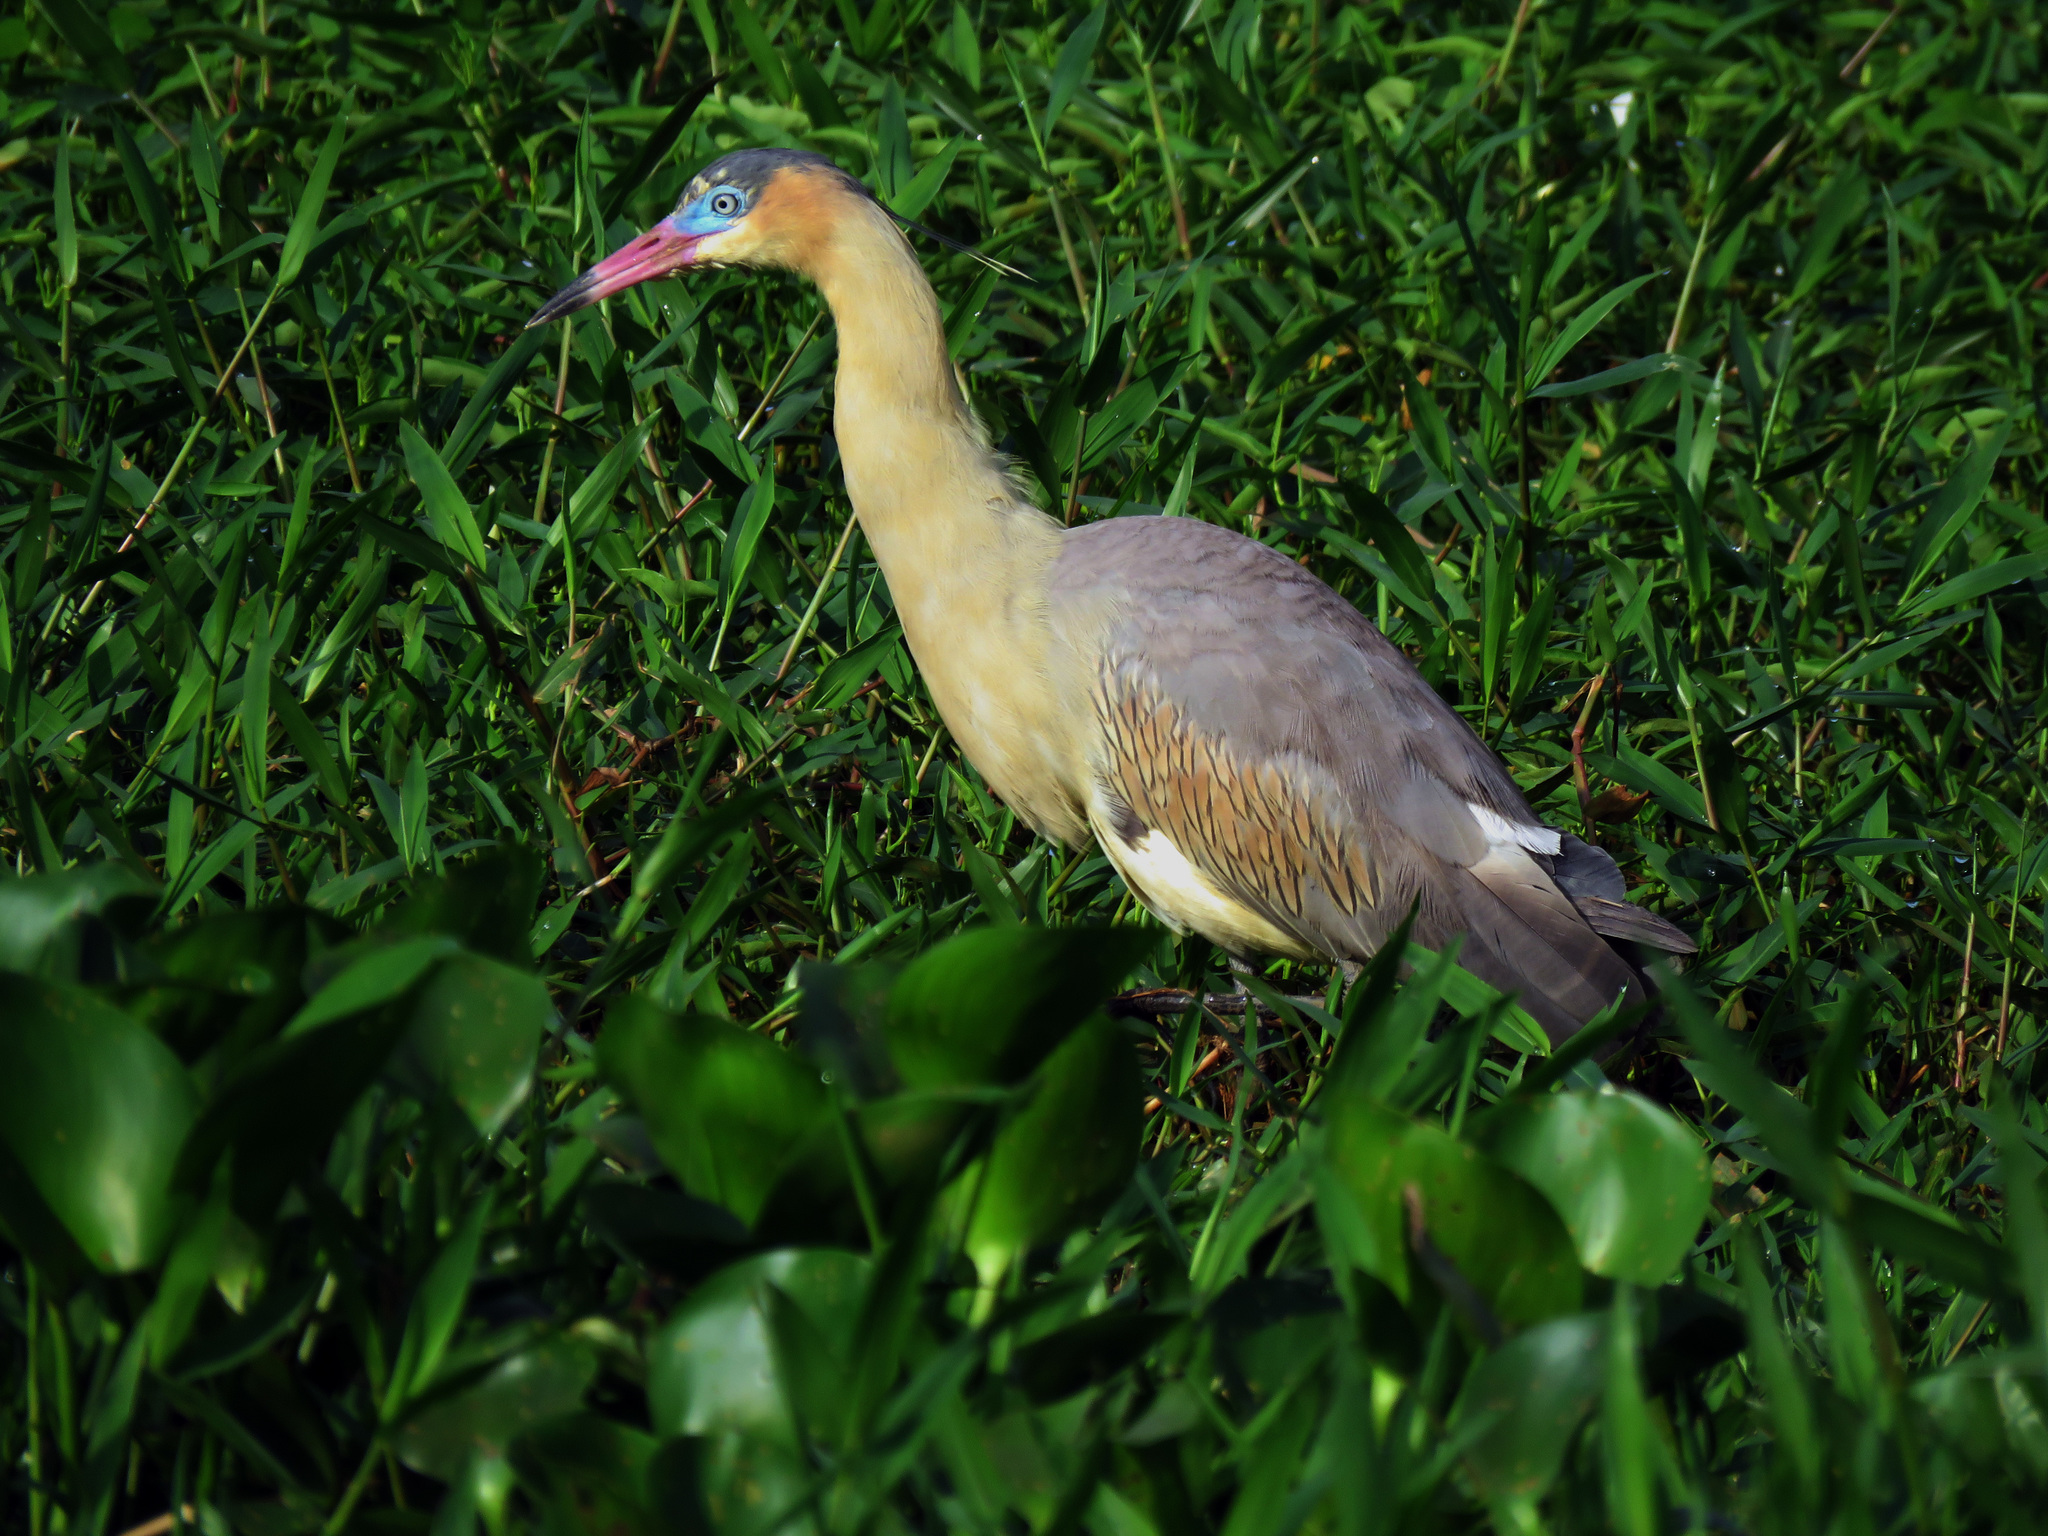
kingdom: Animalia
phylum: Chordata
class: Aves
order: Pelecaniformes
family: Ardeidae
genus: Syrigma
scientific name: Syrigma sibilatrix
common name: Whistling heron
